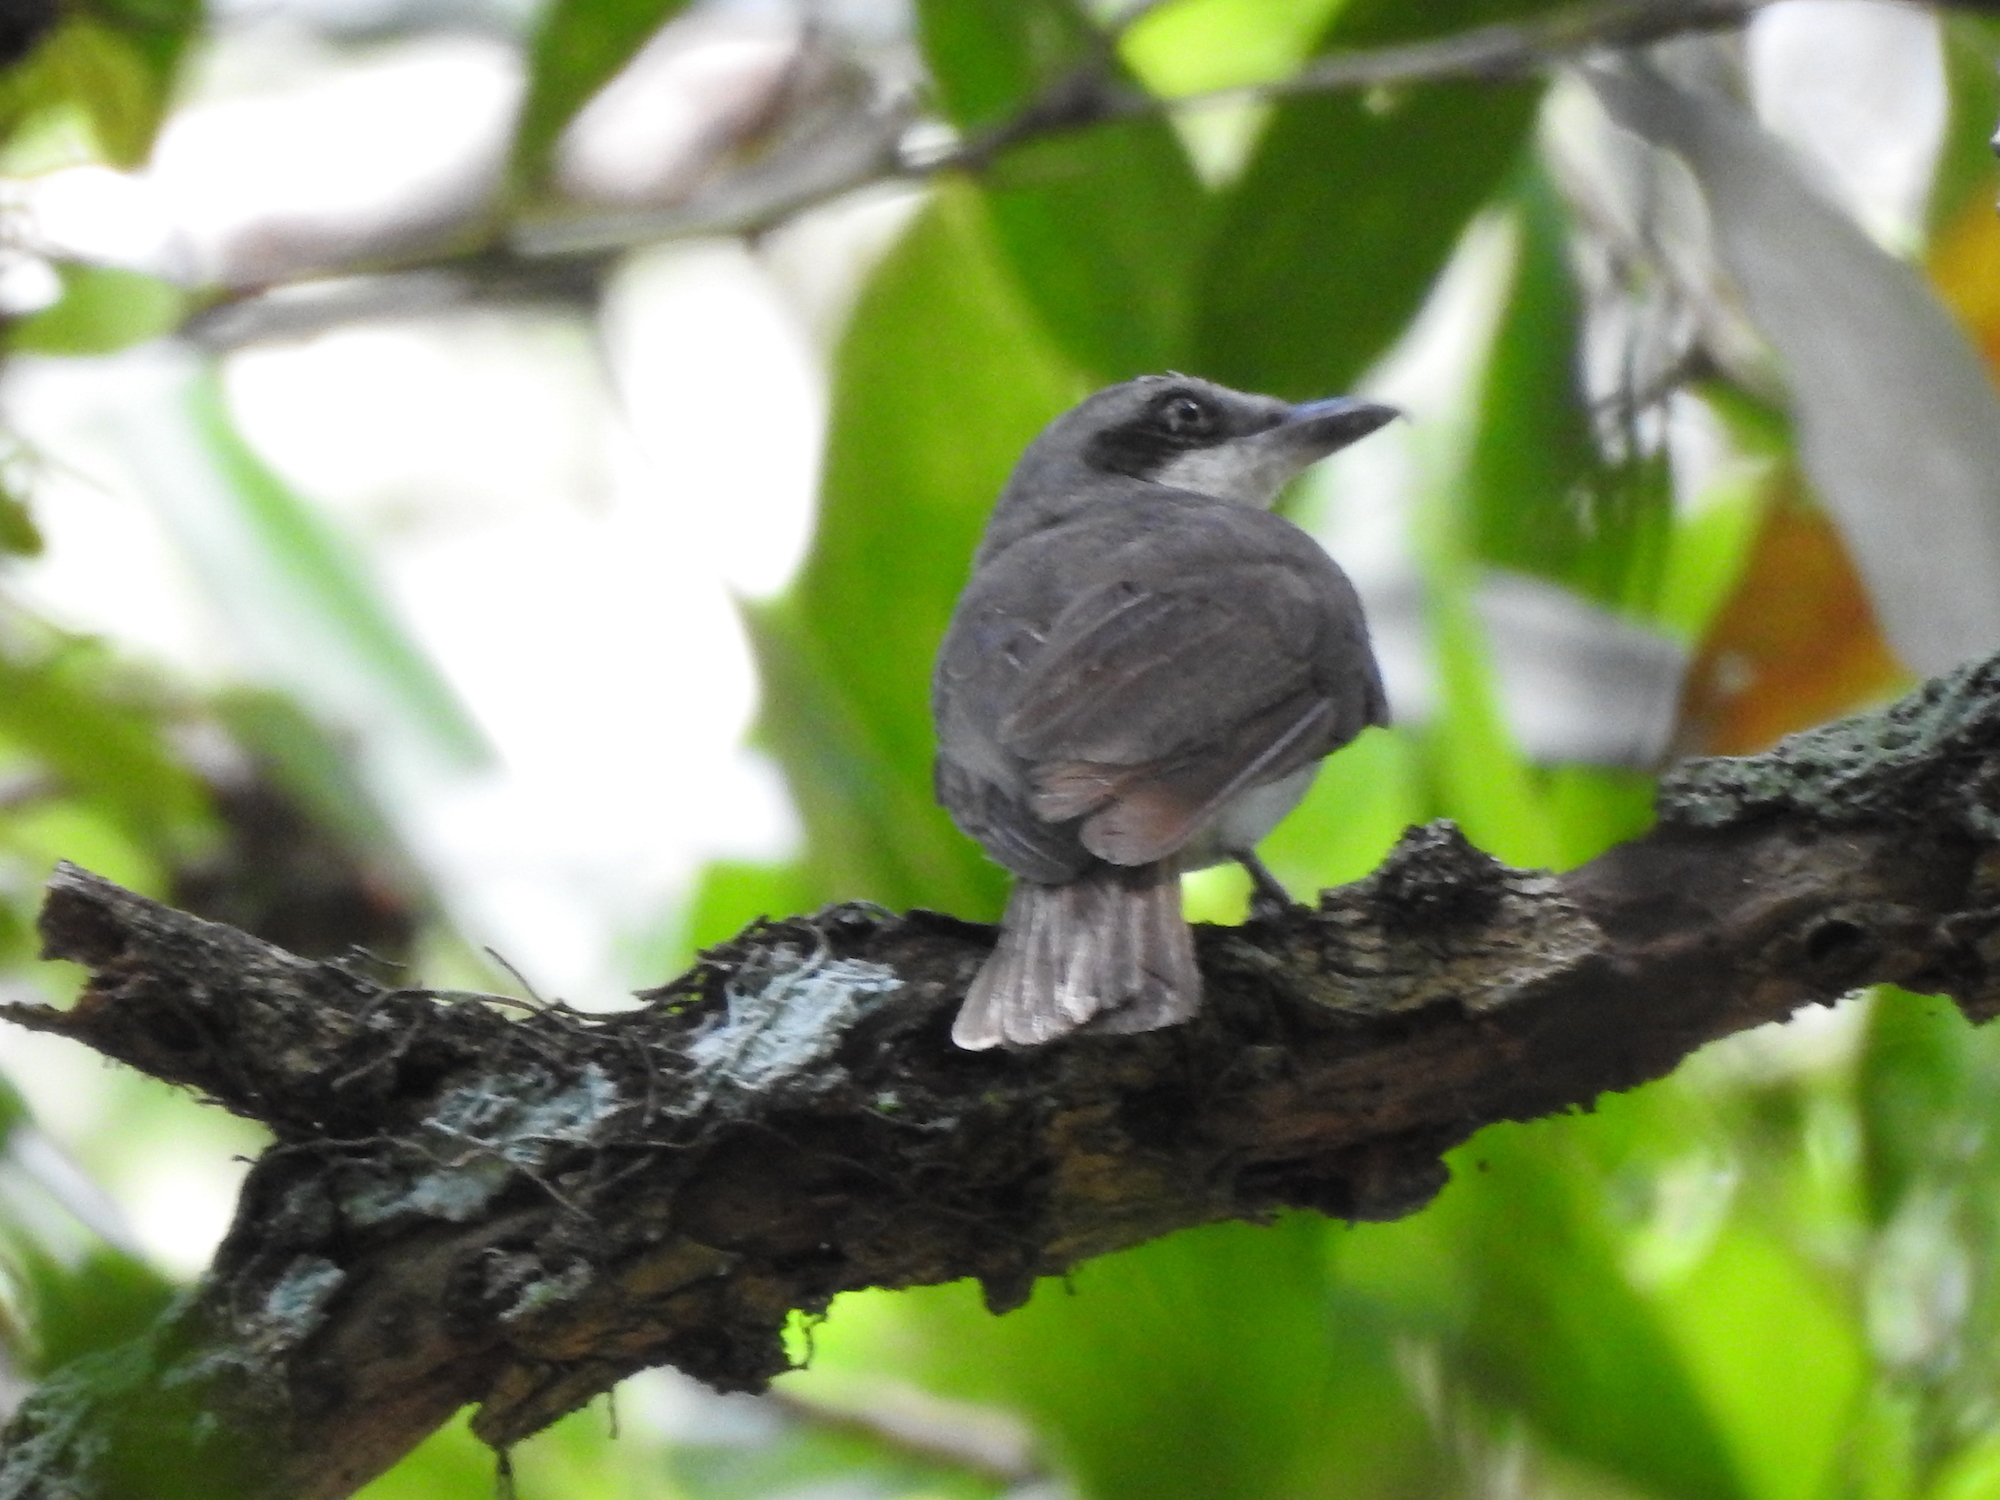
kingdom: Animalia
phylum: Chordata
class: Aves
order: Passeriformes
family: Tephrodornithidae
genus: Tephrodornis
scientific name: Tephrodornis virgatus
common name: Large woodshrike
